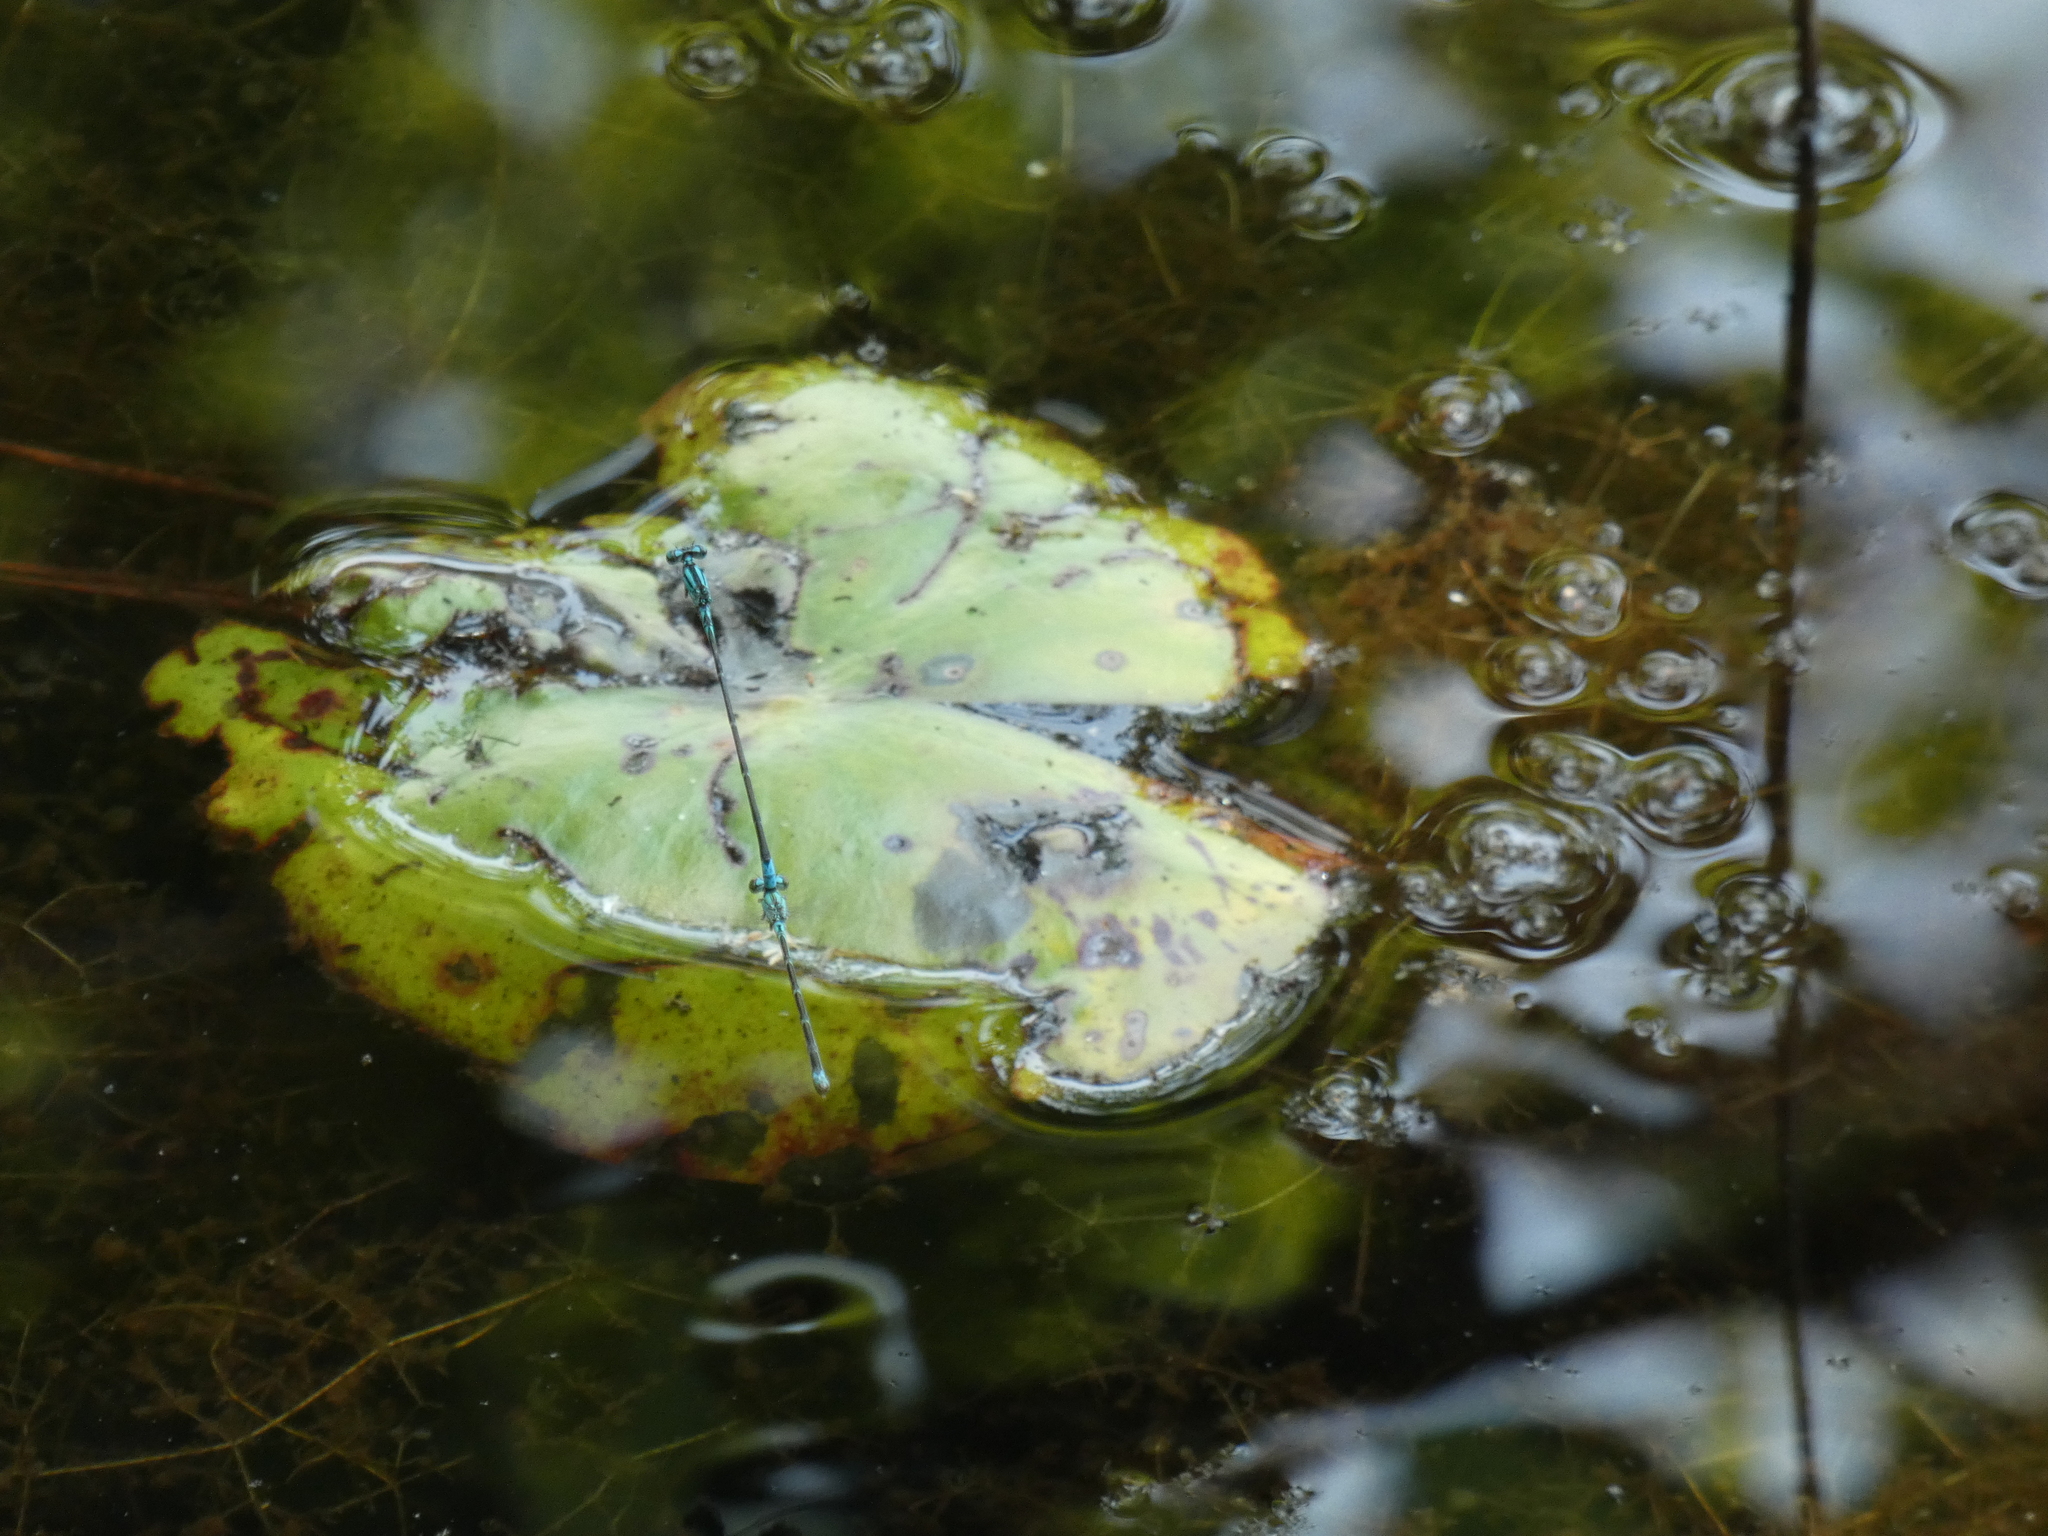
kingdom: Animalia
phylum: Arthropoda
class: Insecta
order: Odonata
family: Coenagrionidae
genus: Enallagma
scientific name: Enallagma traviatum
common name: Slender bluet
